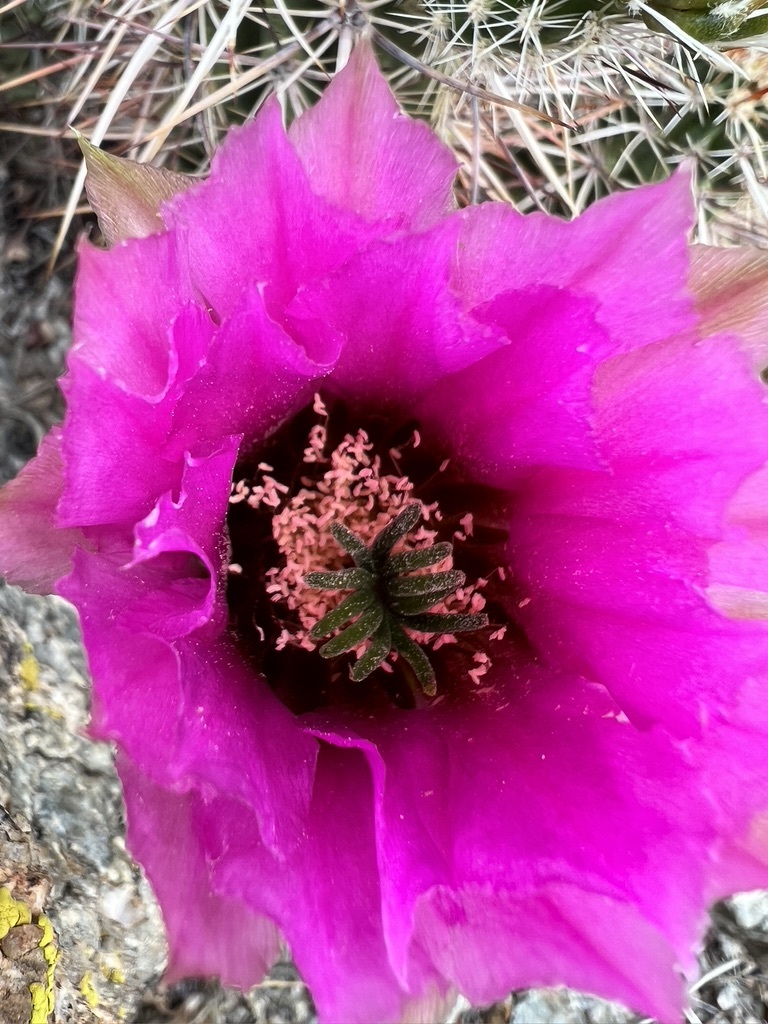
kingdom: Plantae
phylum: Tracheophyta
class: Magnoliopsida
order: Caryophyllales
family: Cactaceae
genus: Echinocereus
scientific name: Echinocereus engelmannii
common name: Engelmann's hedgehog cactus
